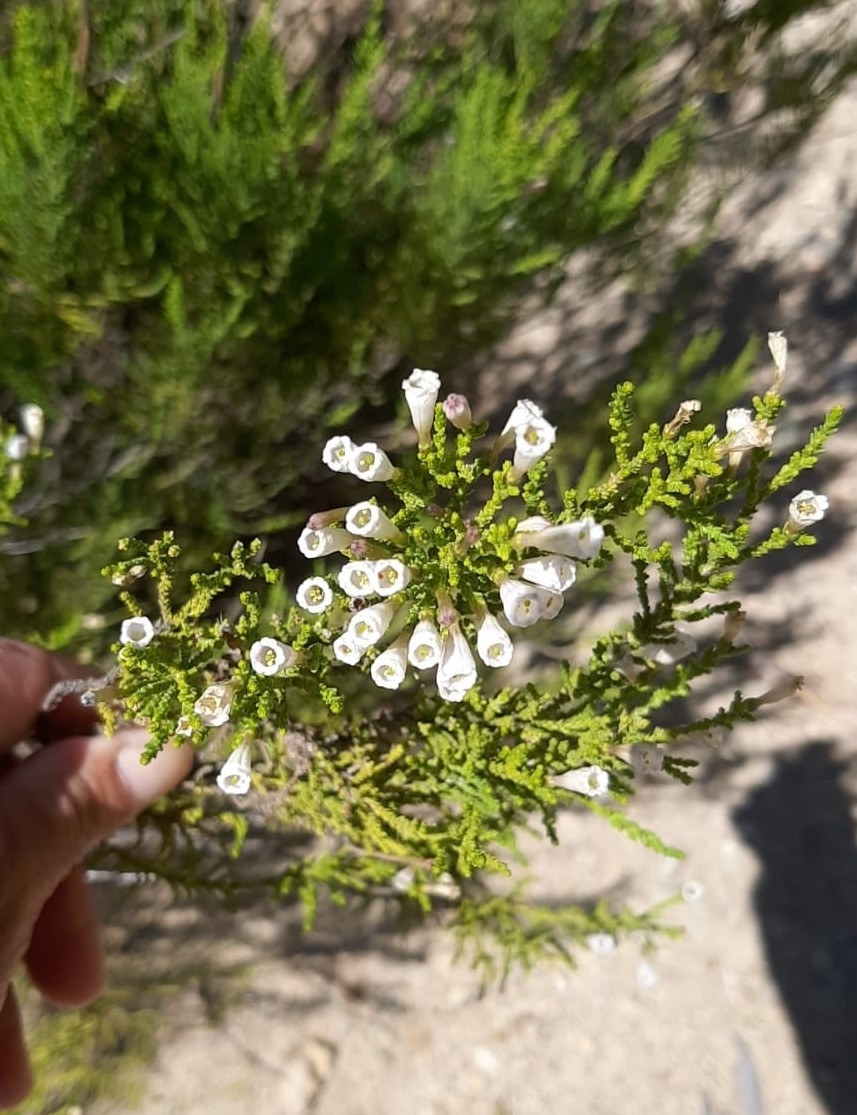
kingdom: Plantae
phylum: Tracheophyta
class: Magnoliopsida
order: Solanales
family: Solanaceae
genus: Fabiana
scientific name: Fabiana imbricata
